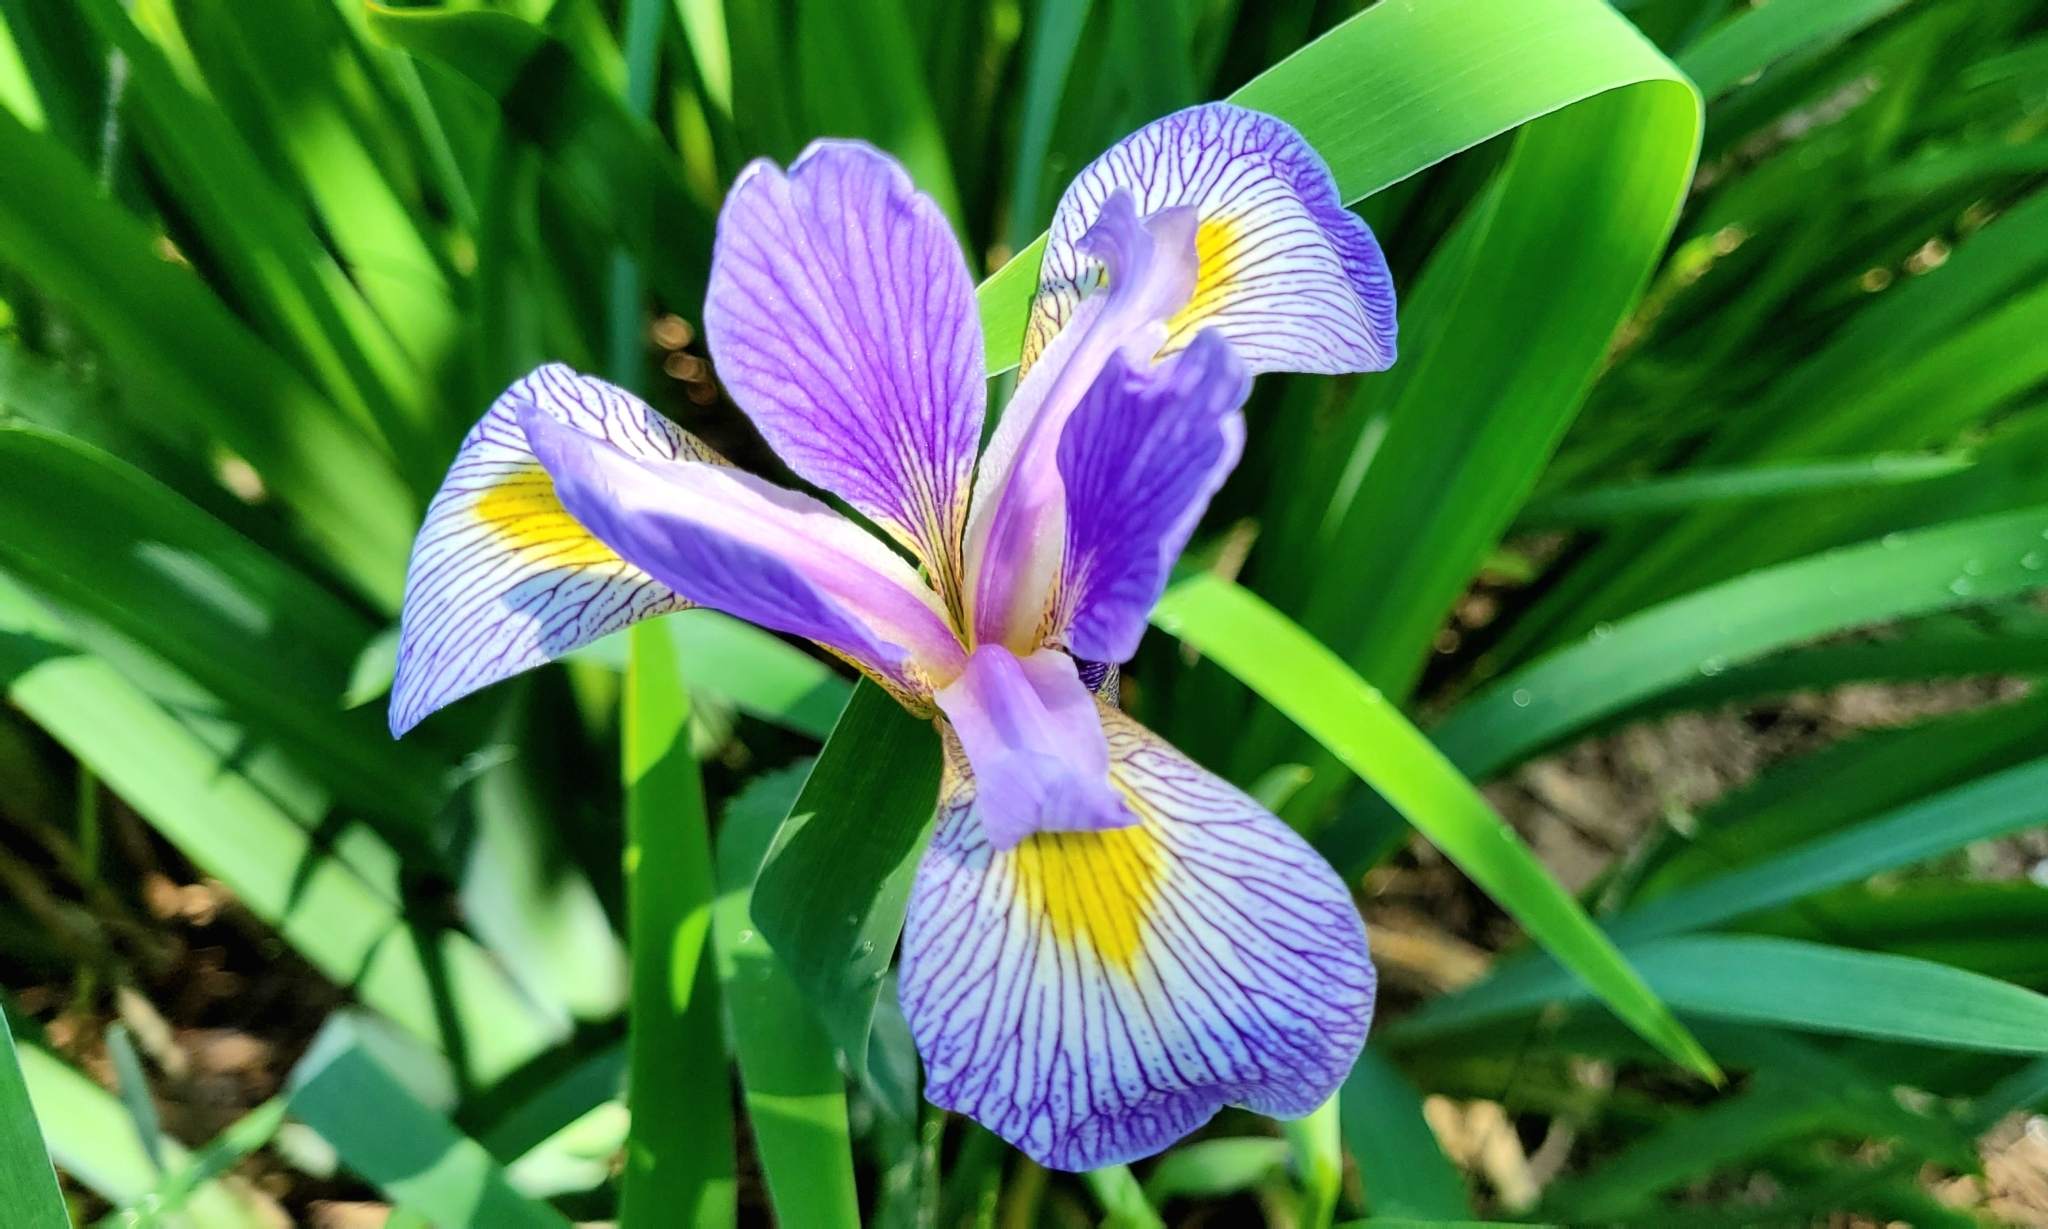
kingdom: Plantae
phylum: Tracheophyta
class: Liliopsida
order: Asparagales
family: Iridaceae
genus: Iris
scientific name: Iris virginica
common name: Southern blue flag
